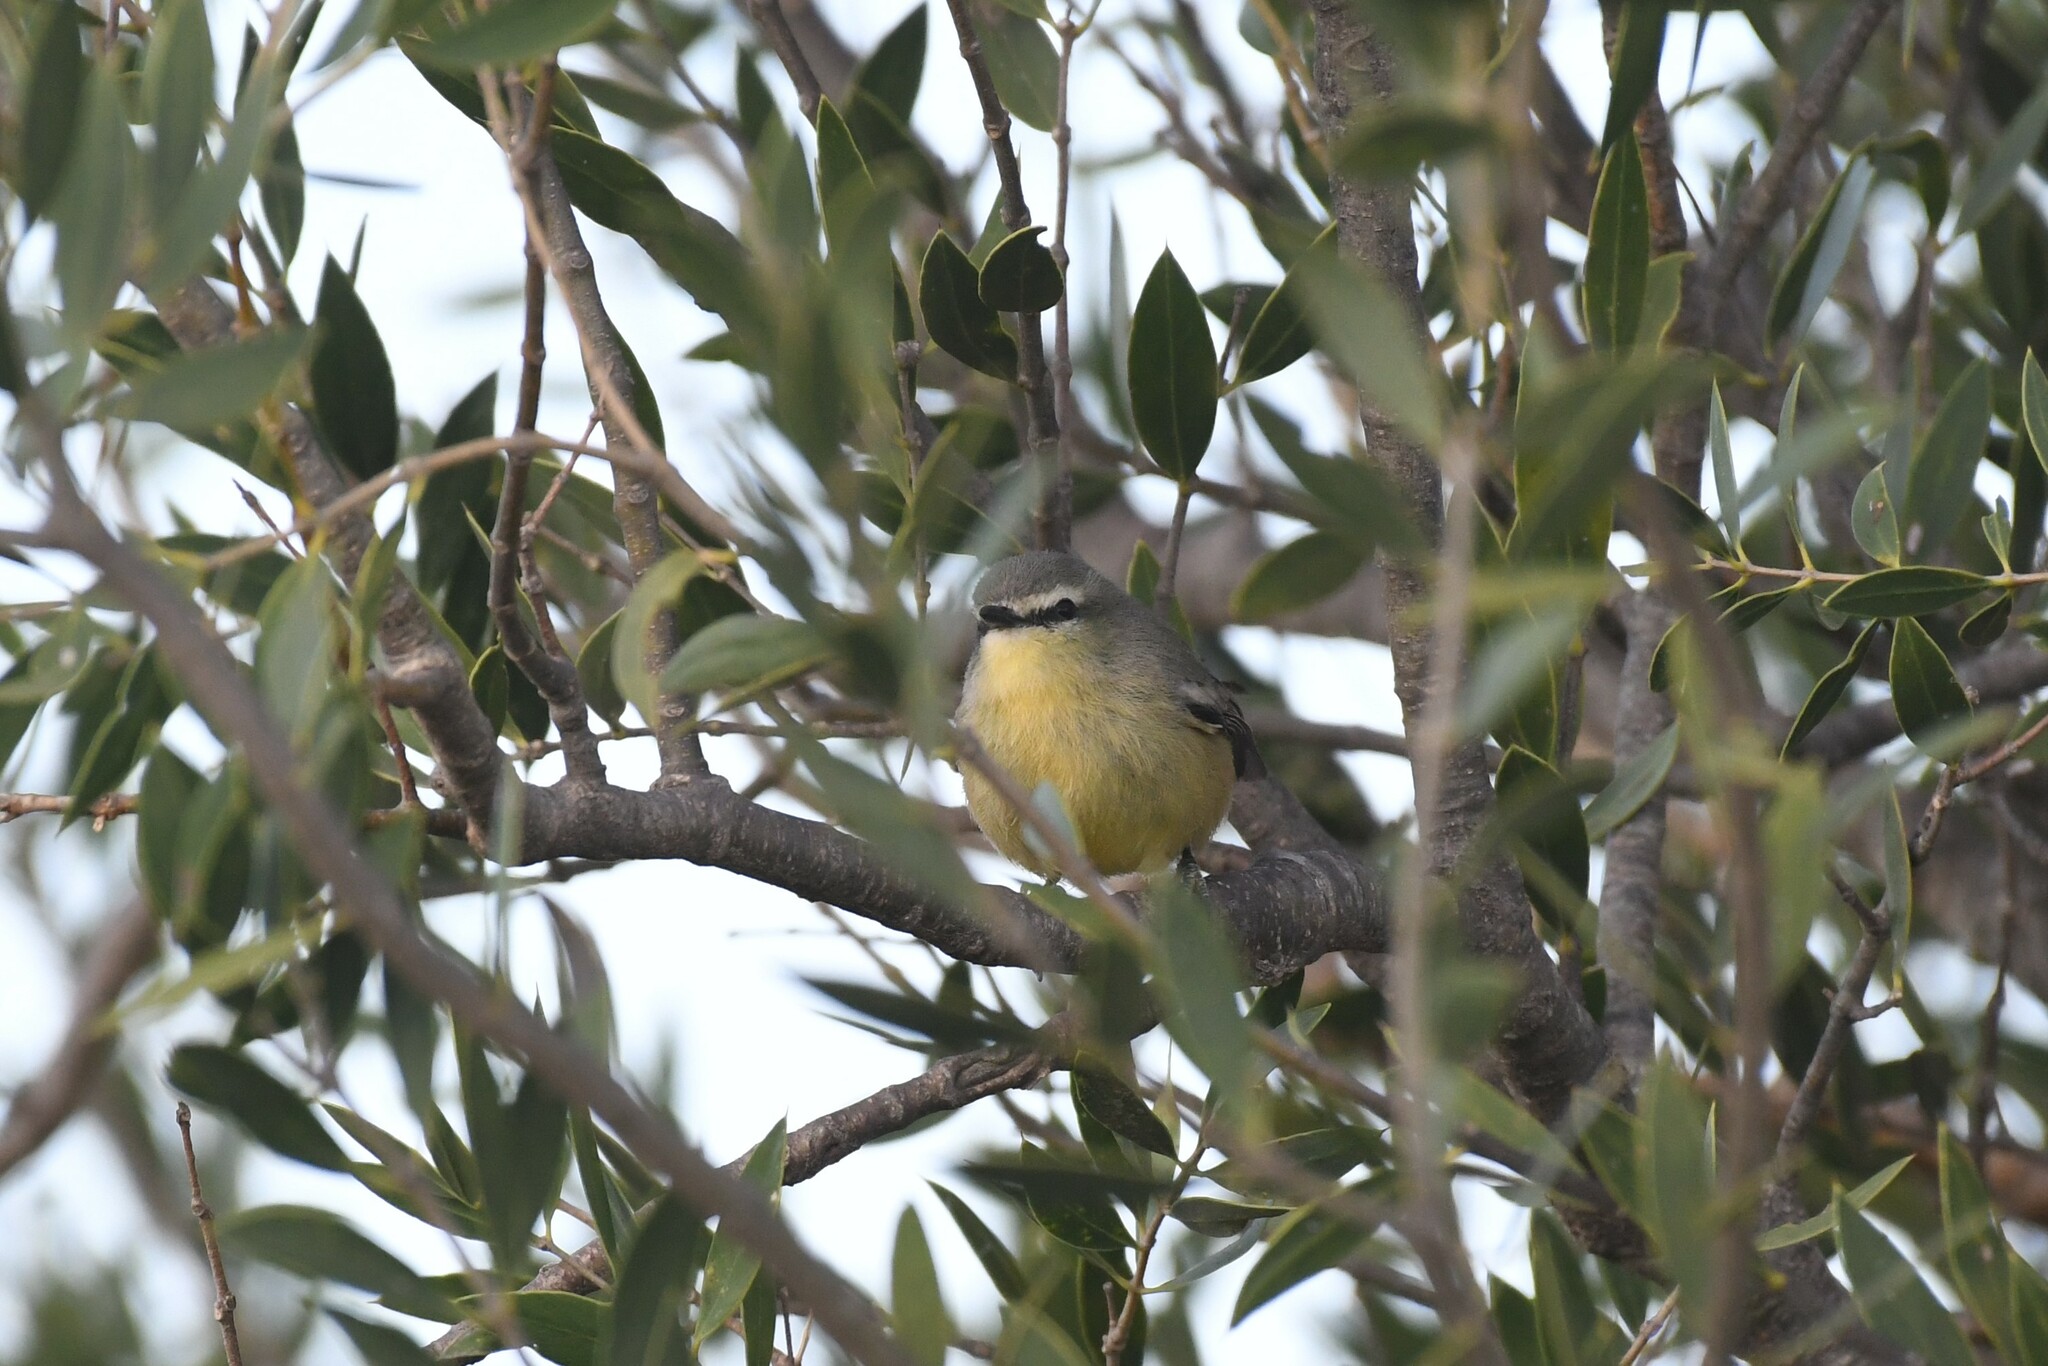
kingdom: Animalia
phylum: Chordata
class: Aves
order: Passeriformes
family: Tyrannidae
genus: Stigmatura
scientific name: Stigmatura budytoides
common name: Greater wagtail-tyrant
